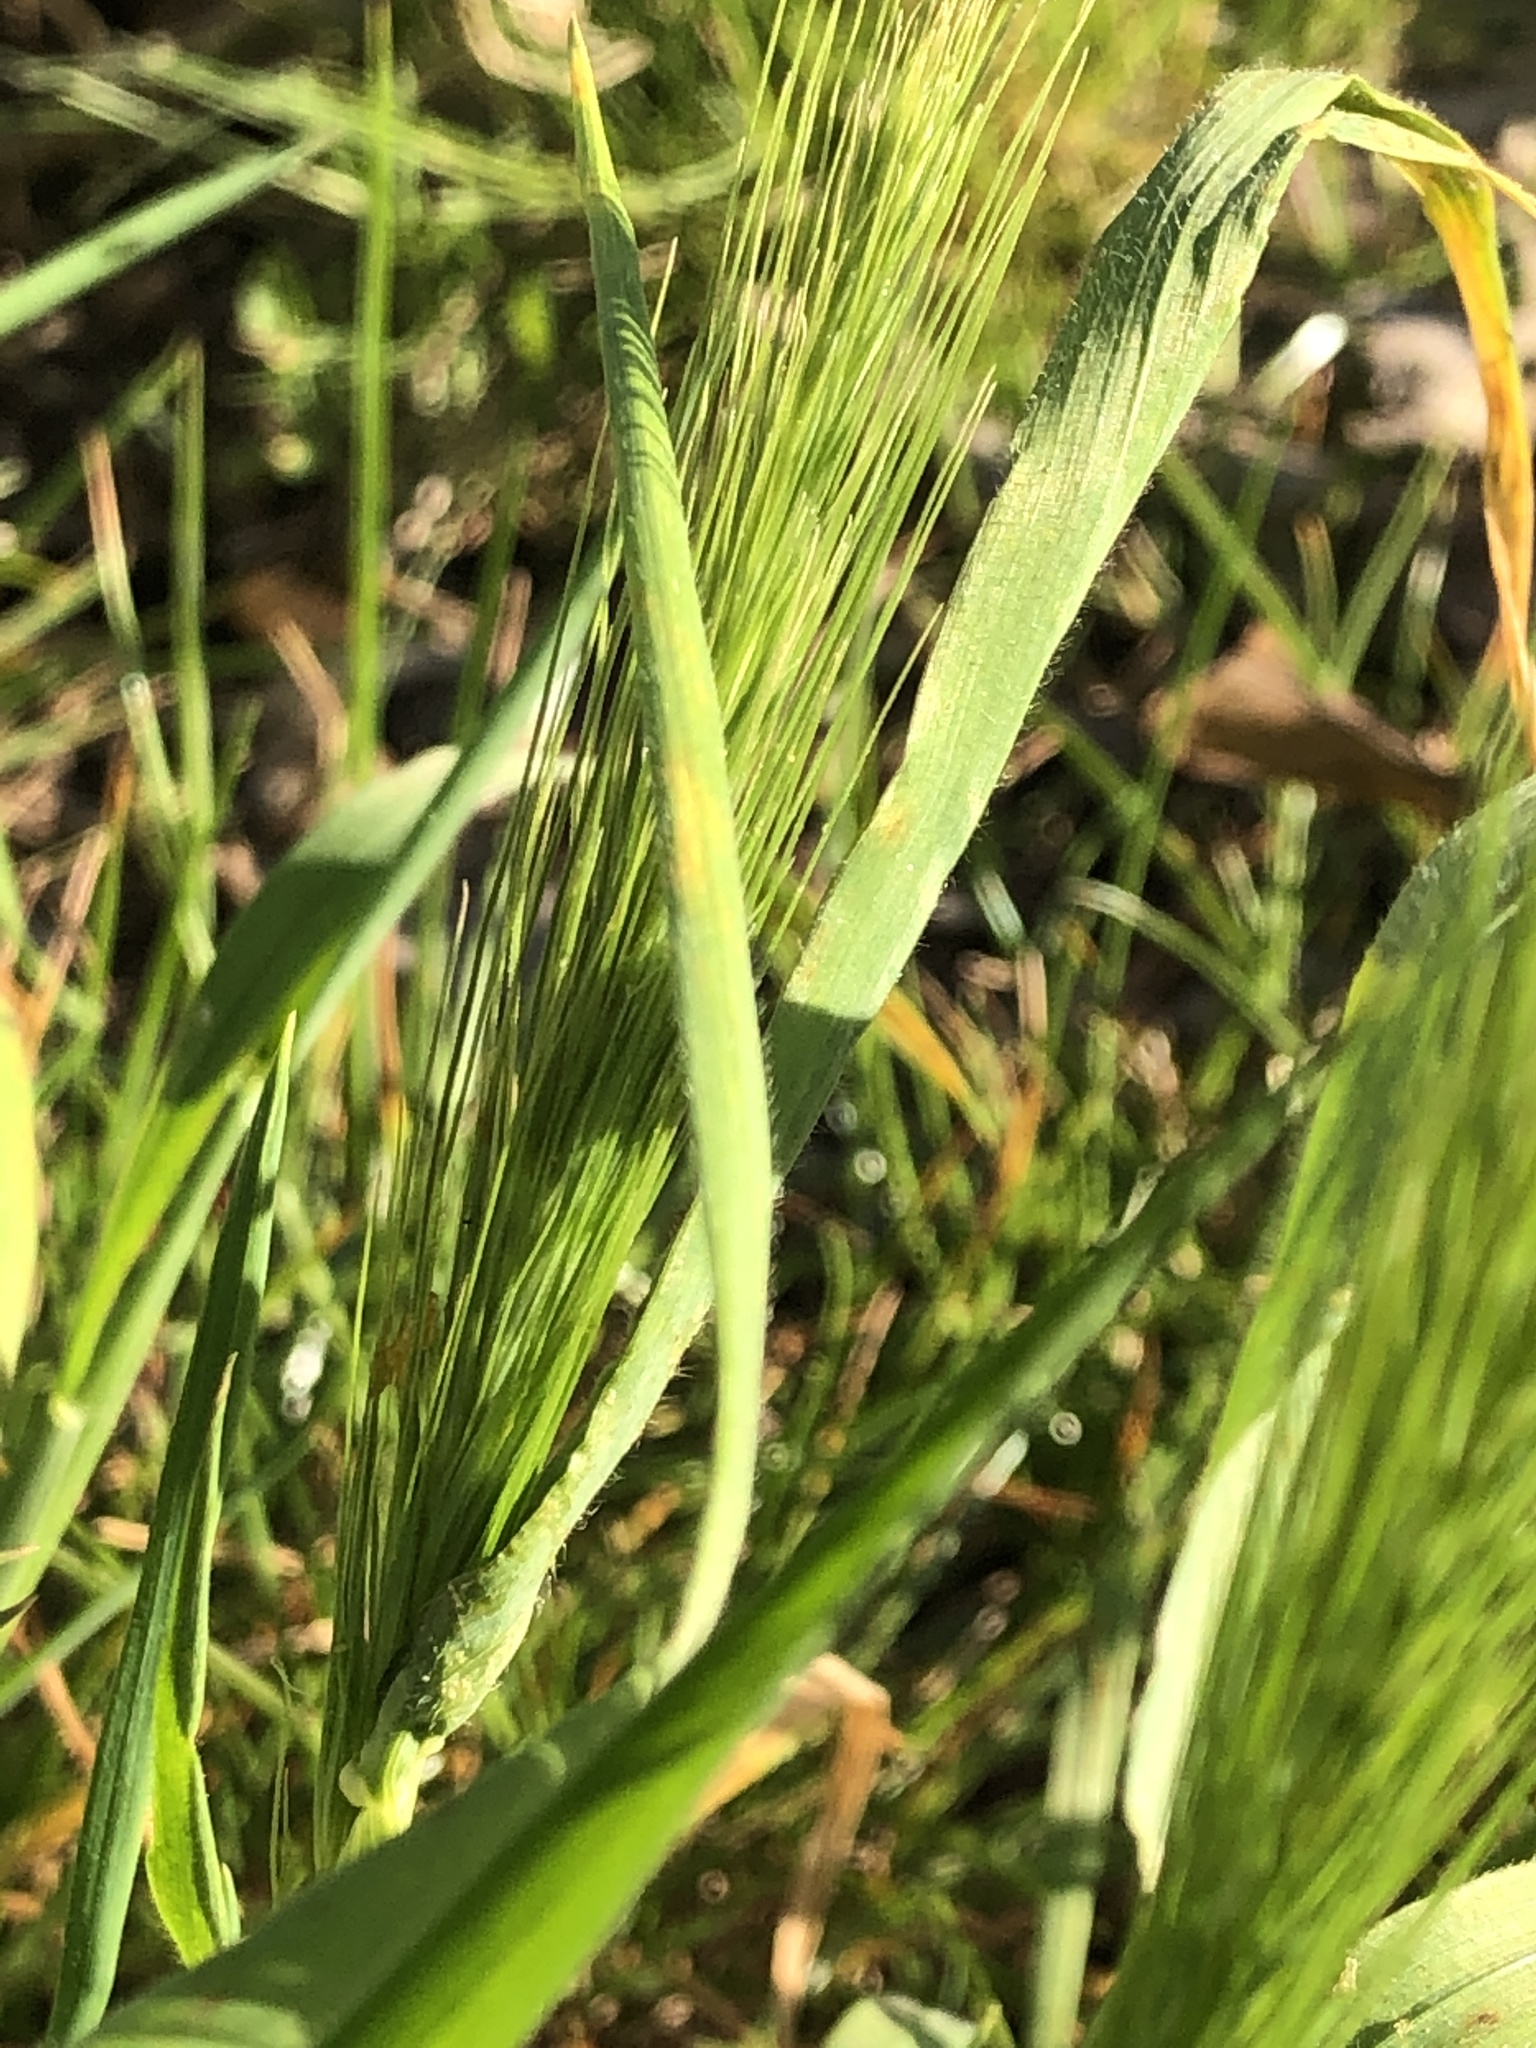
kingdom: Plantae
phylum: Tracheophyta
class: Liliopsida
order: Poales
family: Poaceae
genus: Hordeum
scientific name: Hordeum murinum
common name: Wall barley
